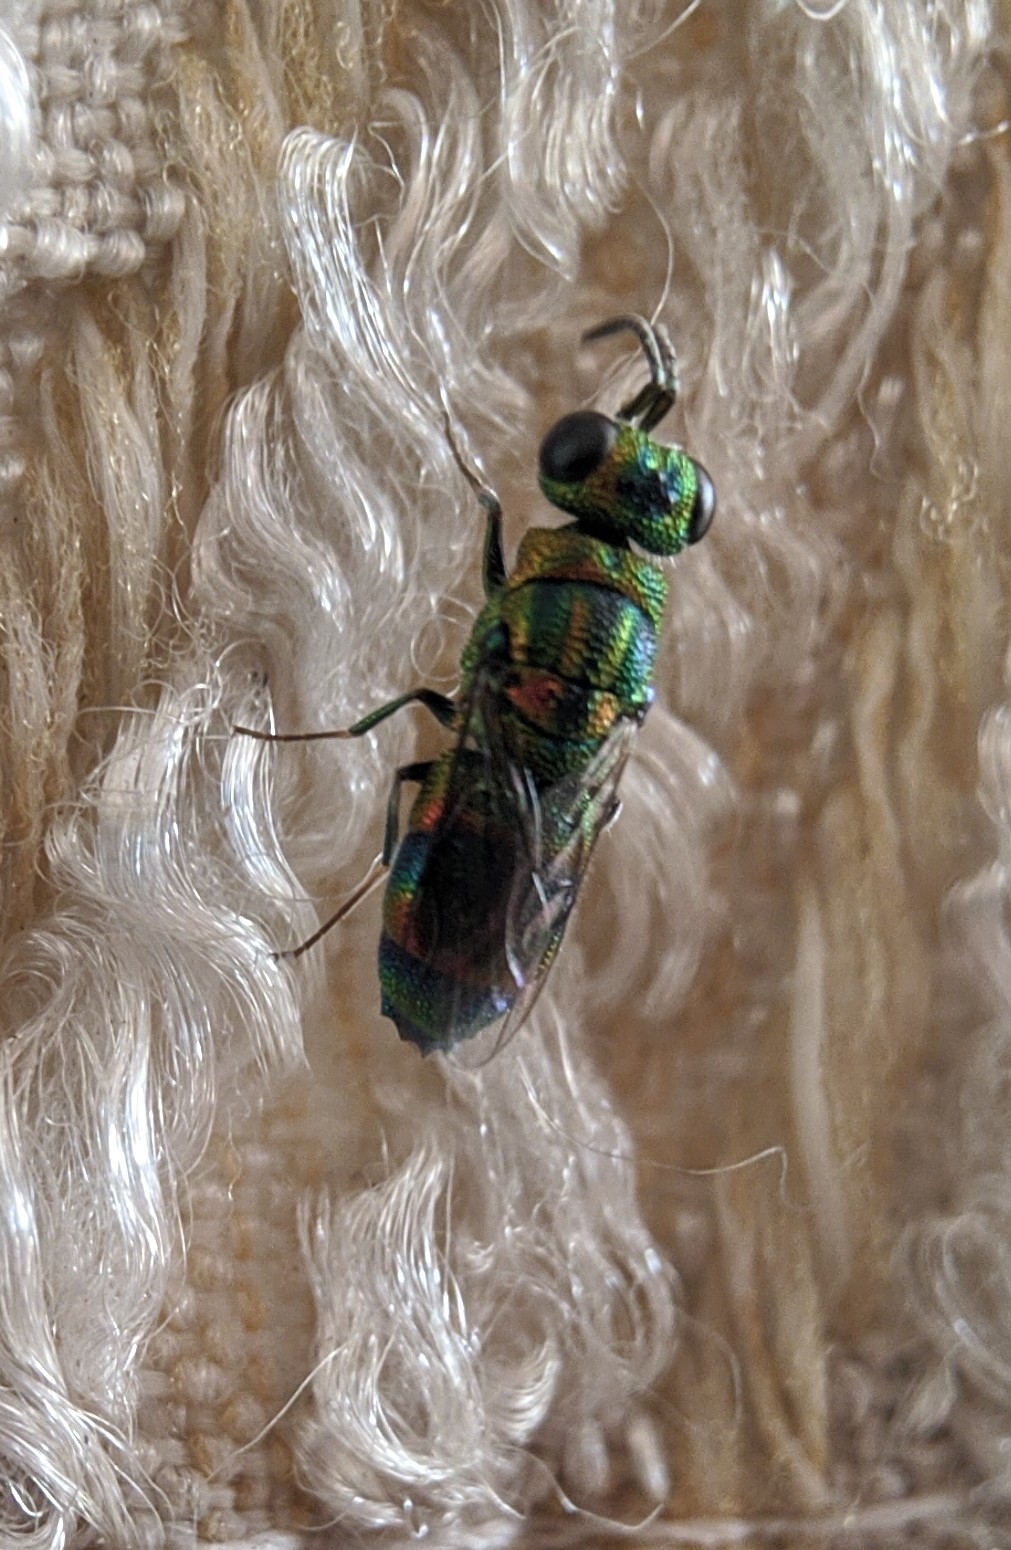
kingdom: Animalia
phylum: Arthropoda
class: Insecta
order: Hymenoptera
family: Chrysididae
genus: Praestochrysis
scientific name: Praestochrysis
